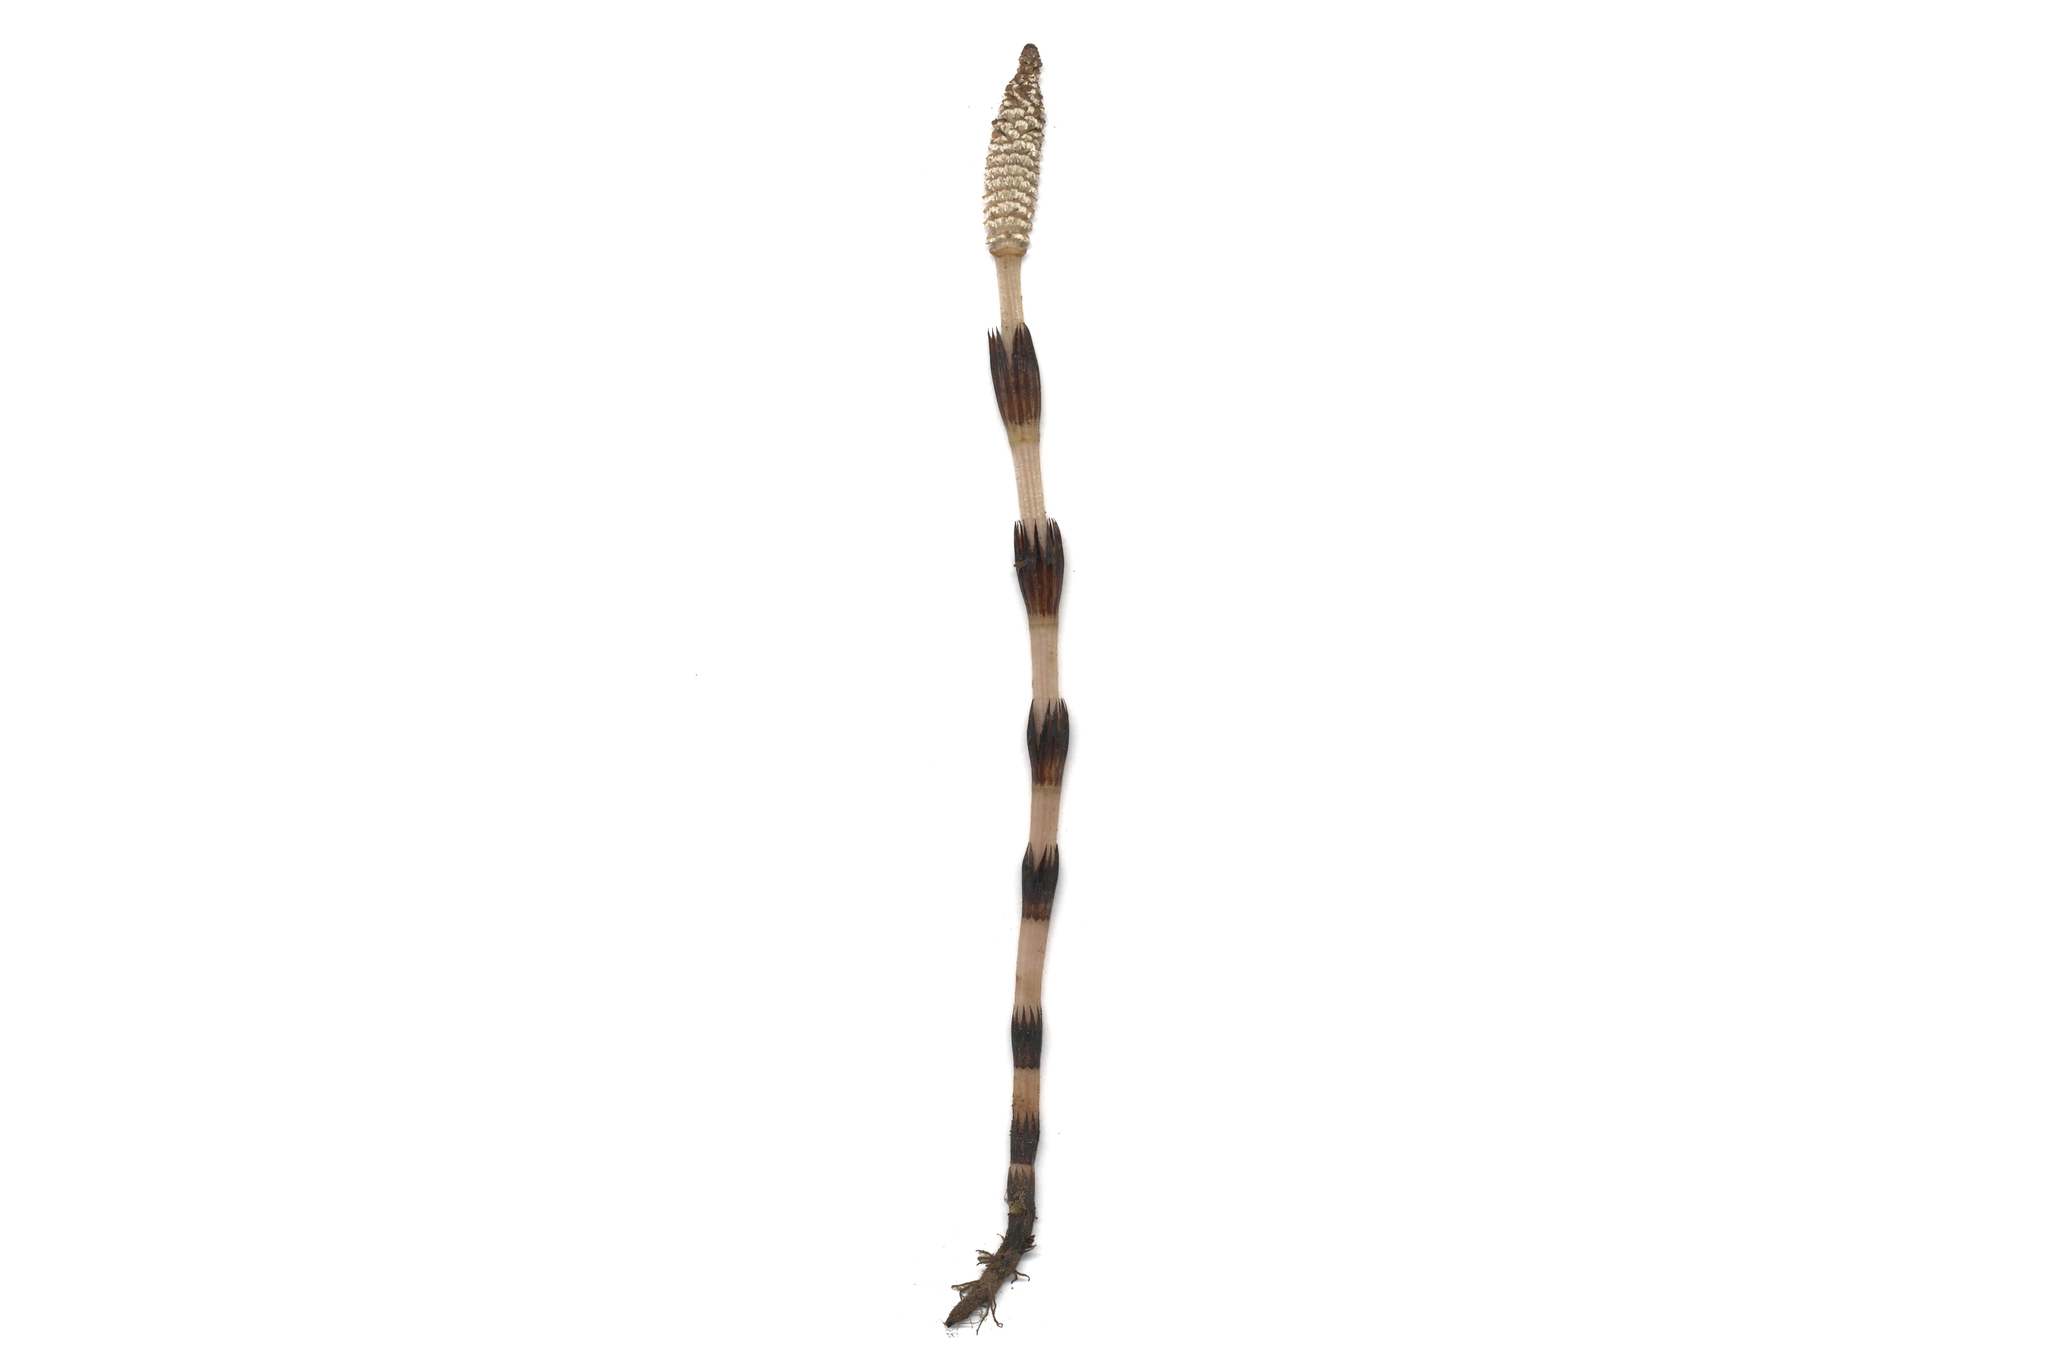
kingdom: Plantae
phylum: Tracheophyta
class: Polypodiopsida
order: Equisetales
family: Equisetaceae
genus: Equisetum
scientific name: Equisetum arvense
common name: Field horsetail
